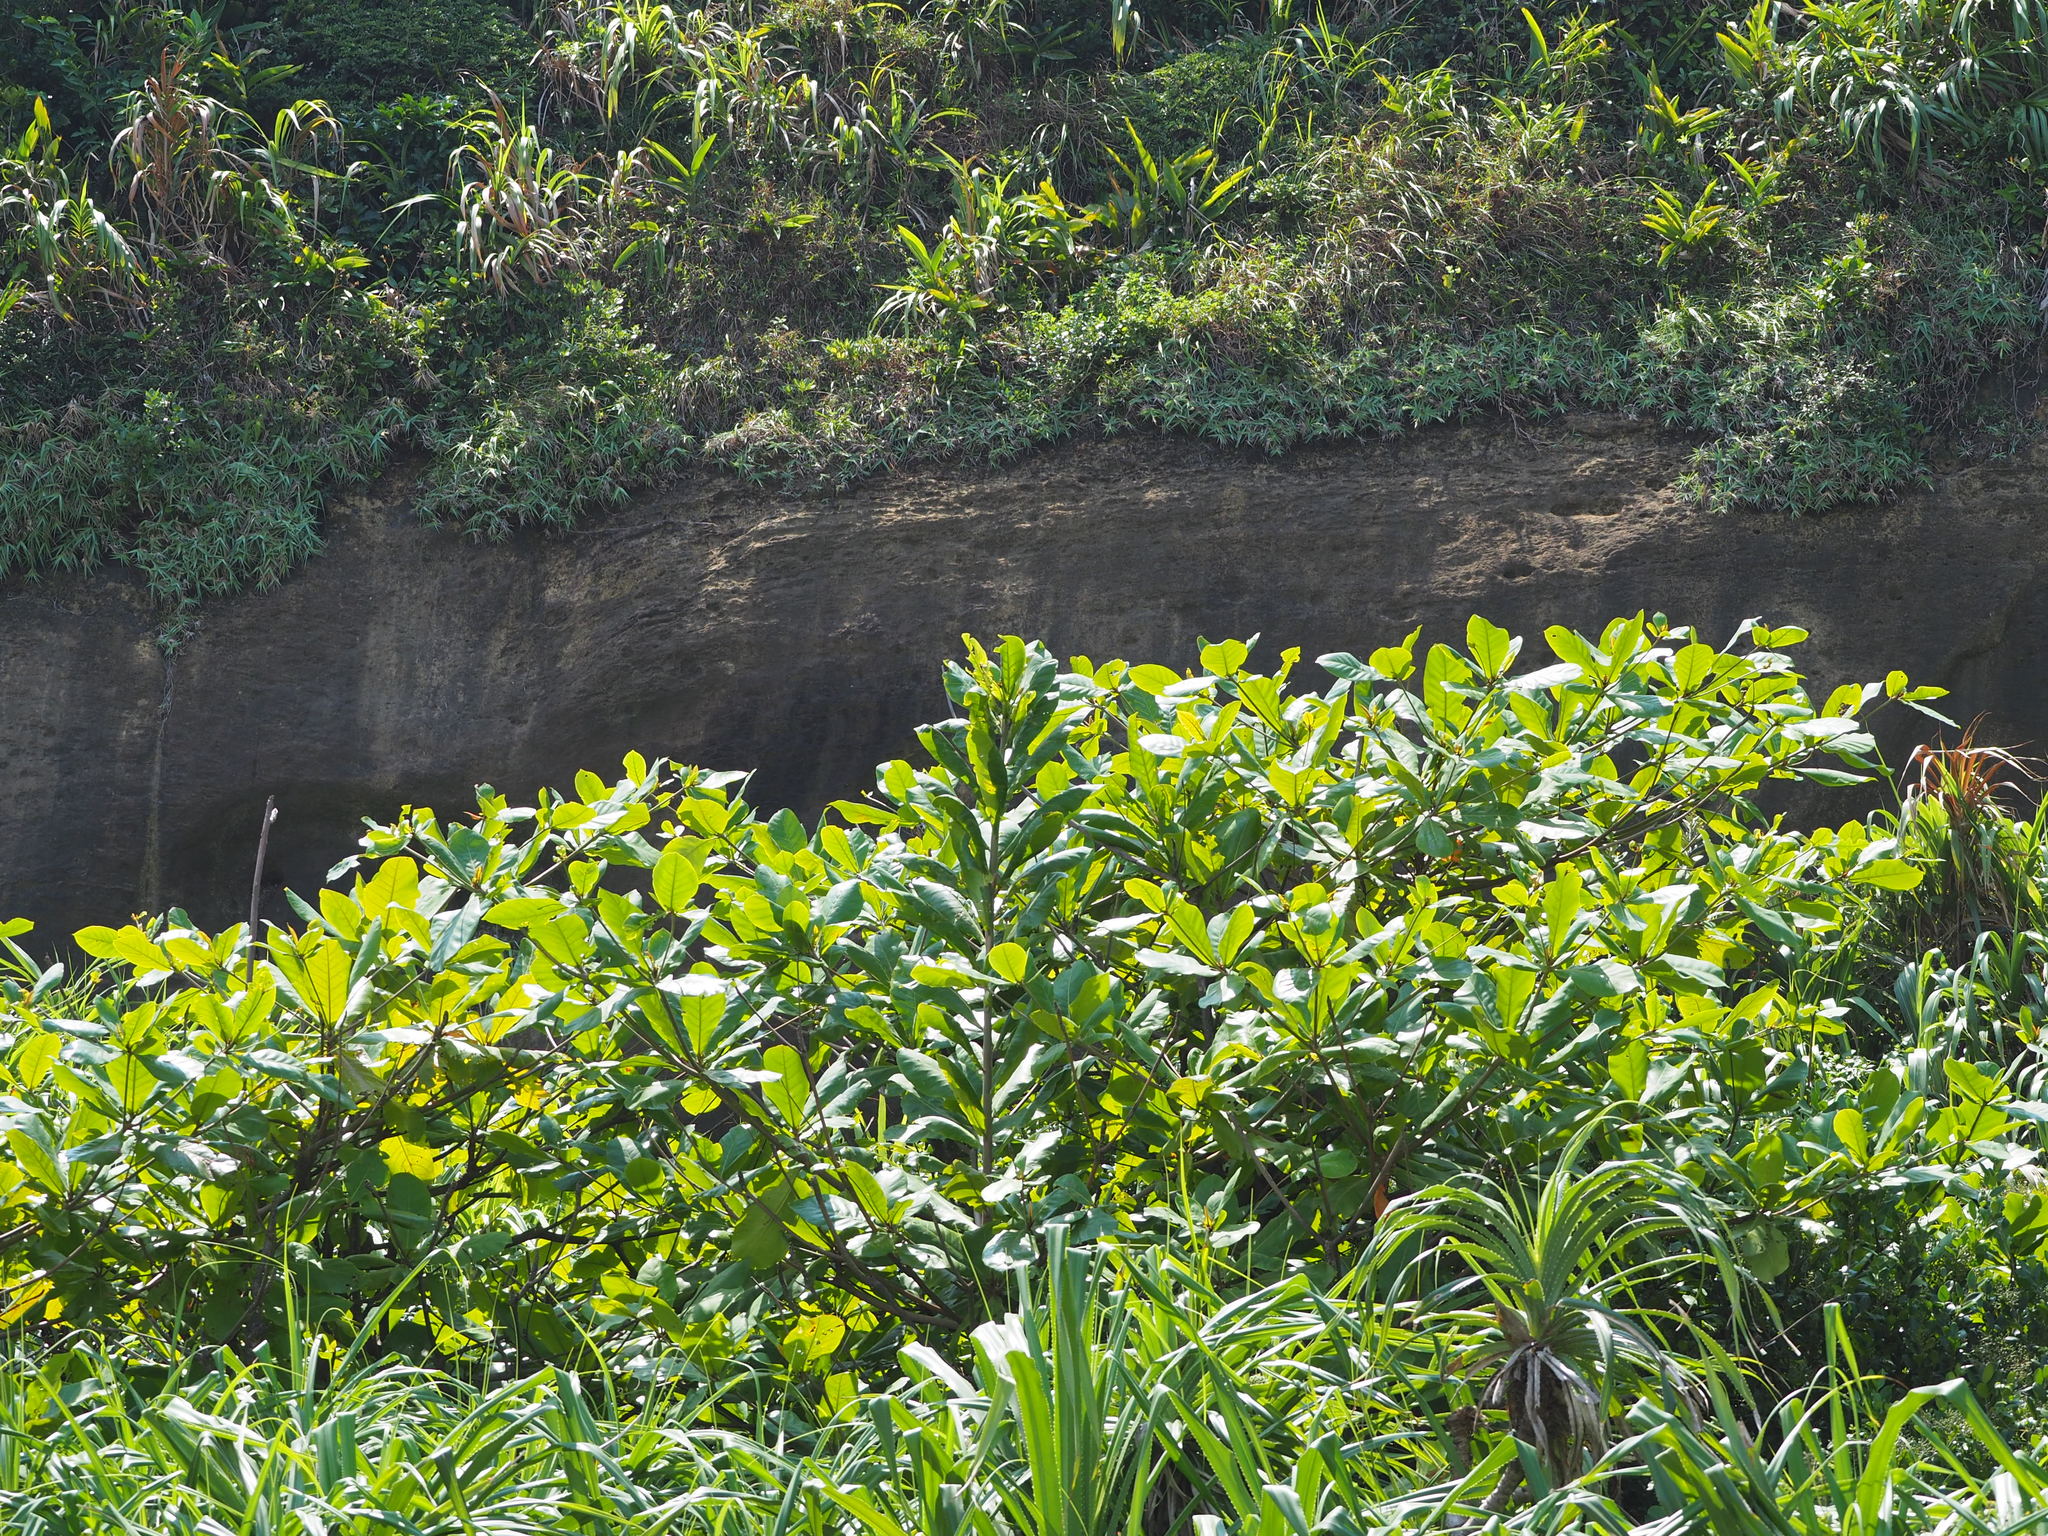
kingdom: Plantae
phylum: Tracheophyta
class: Magnoliopsida
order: Myrtales
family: Combretaceae
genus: Terminalia
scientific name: Terminalia catappa
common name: Tropical almond
